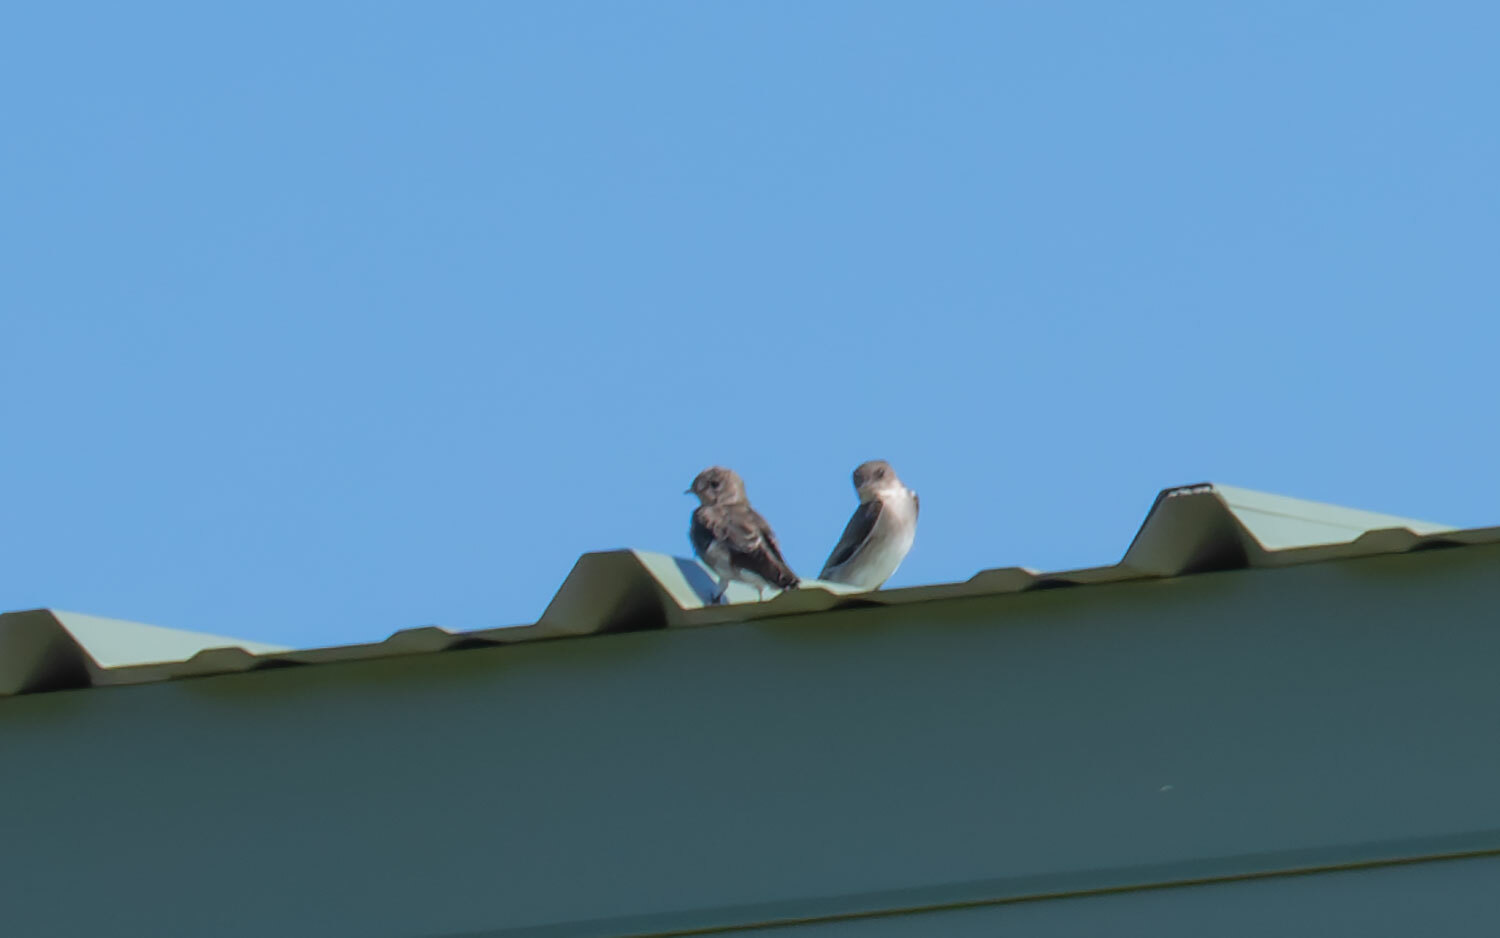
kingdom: Animalia
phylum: Chordata
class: Aves
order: Passeriformes
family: Hirundinidae
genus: Stelgidopteryx
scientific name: Stelgidopteryx serripennis
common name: Northern rough-winged swallow
